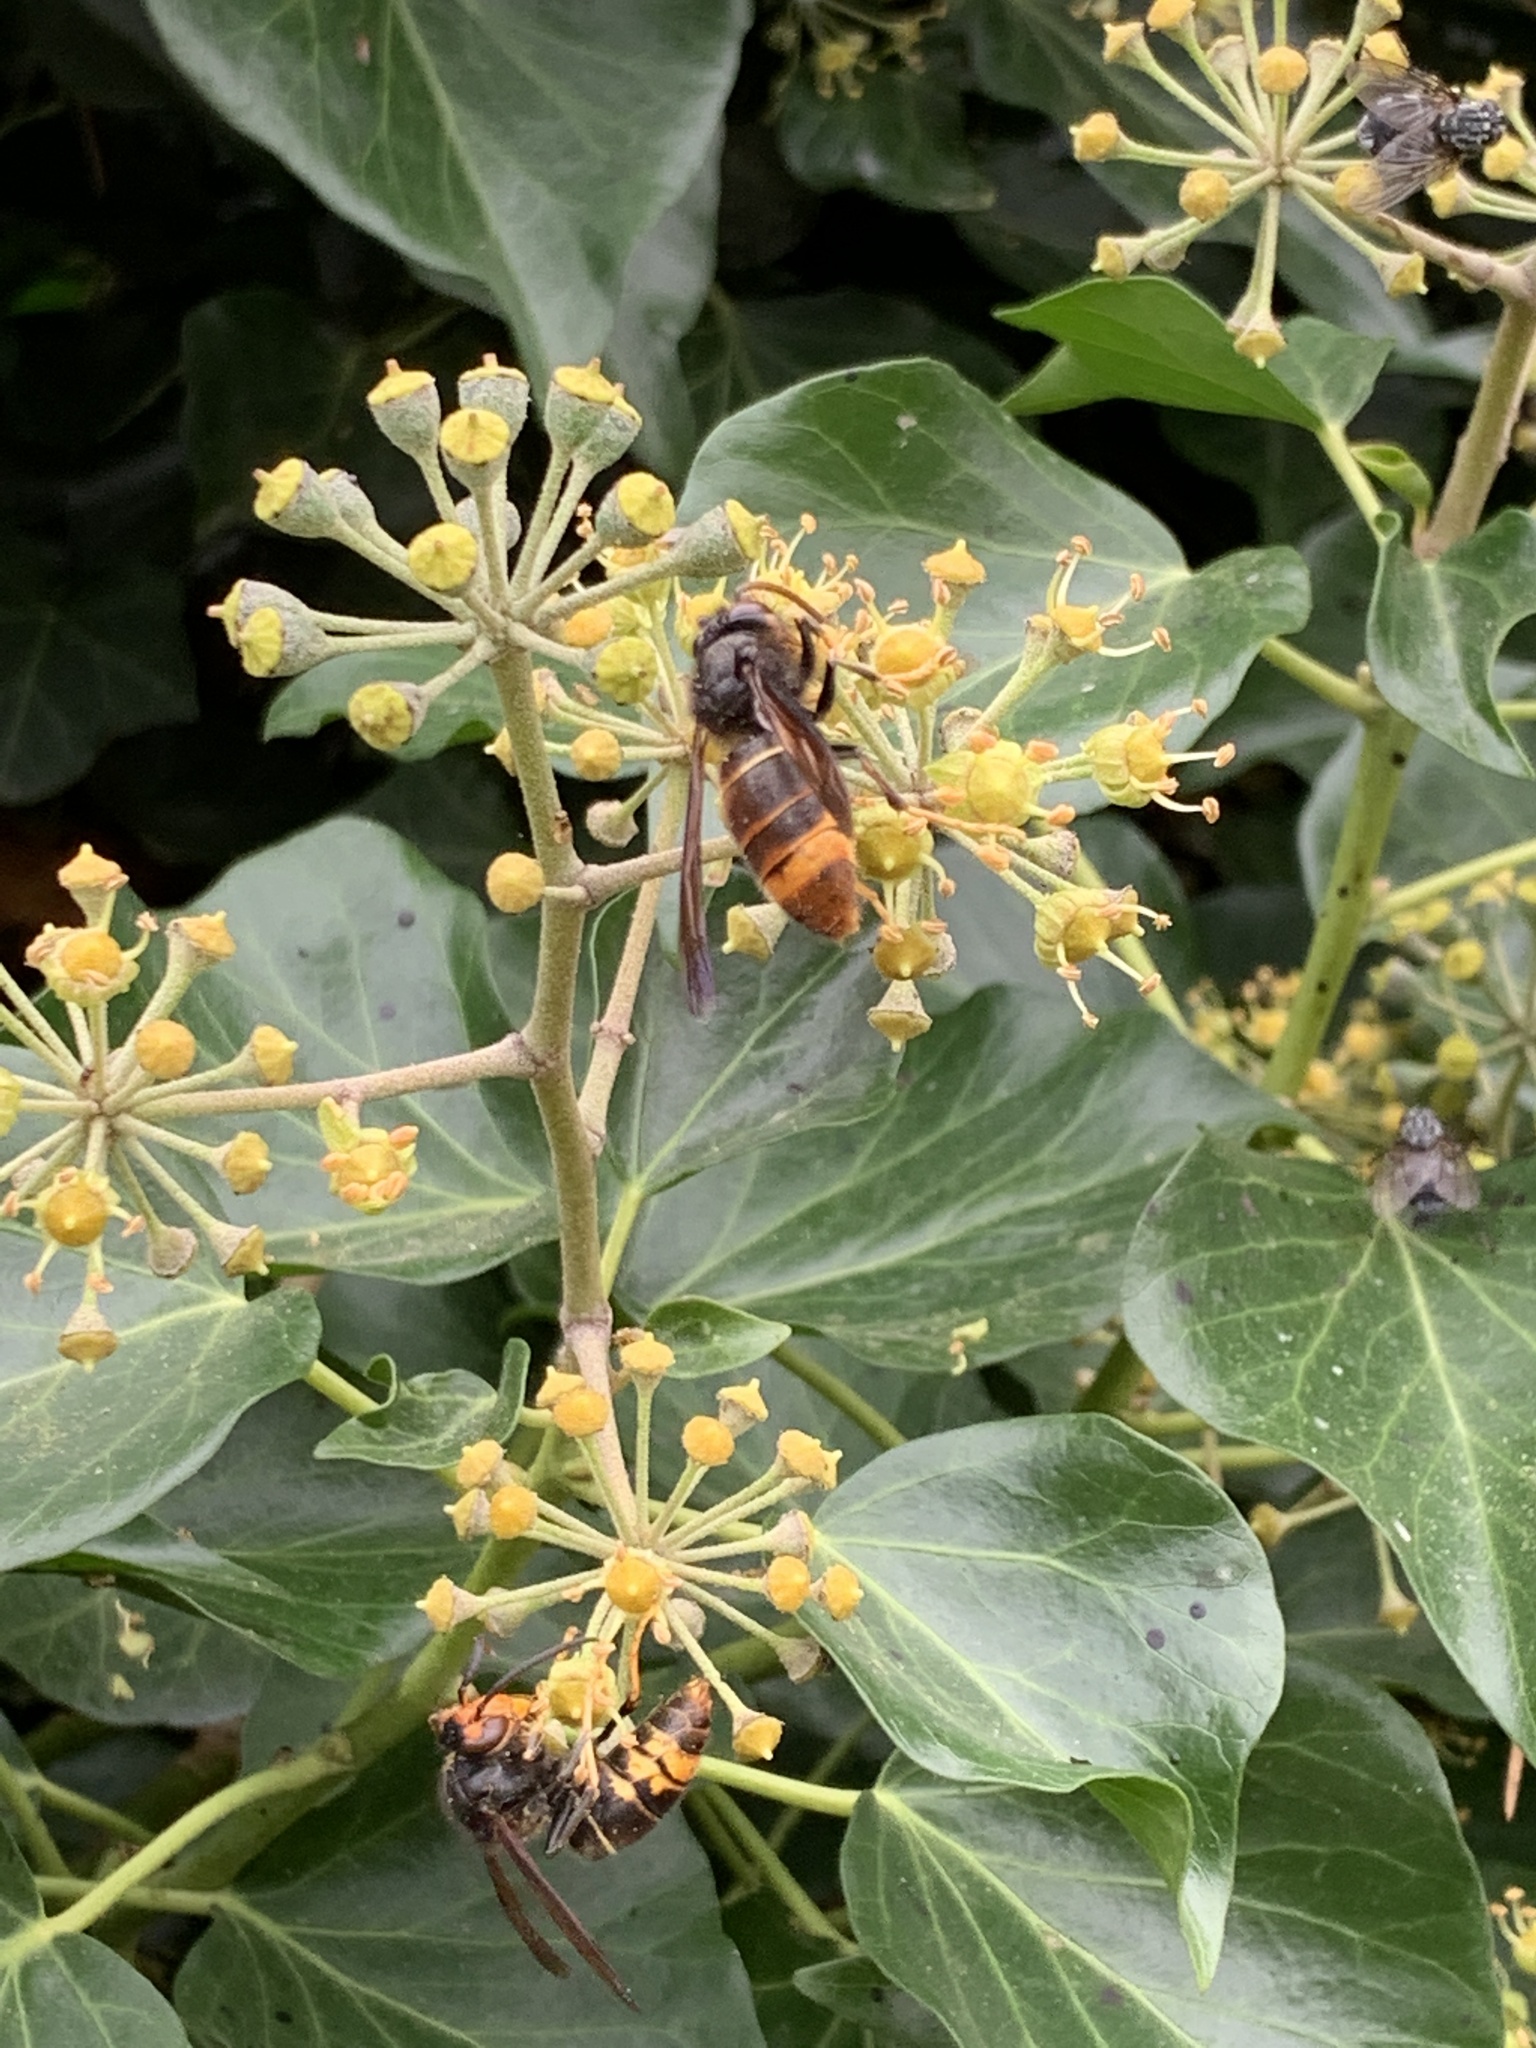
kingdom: Animalia
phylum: Arthropoda
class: Insecta
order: Hymenoptera
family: Vespidae
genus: Vespa
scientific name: Vespa velutina
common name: Asian hornet
